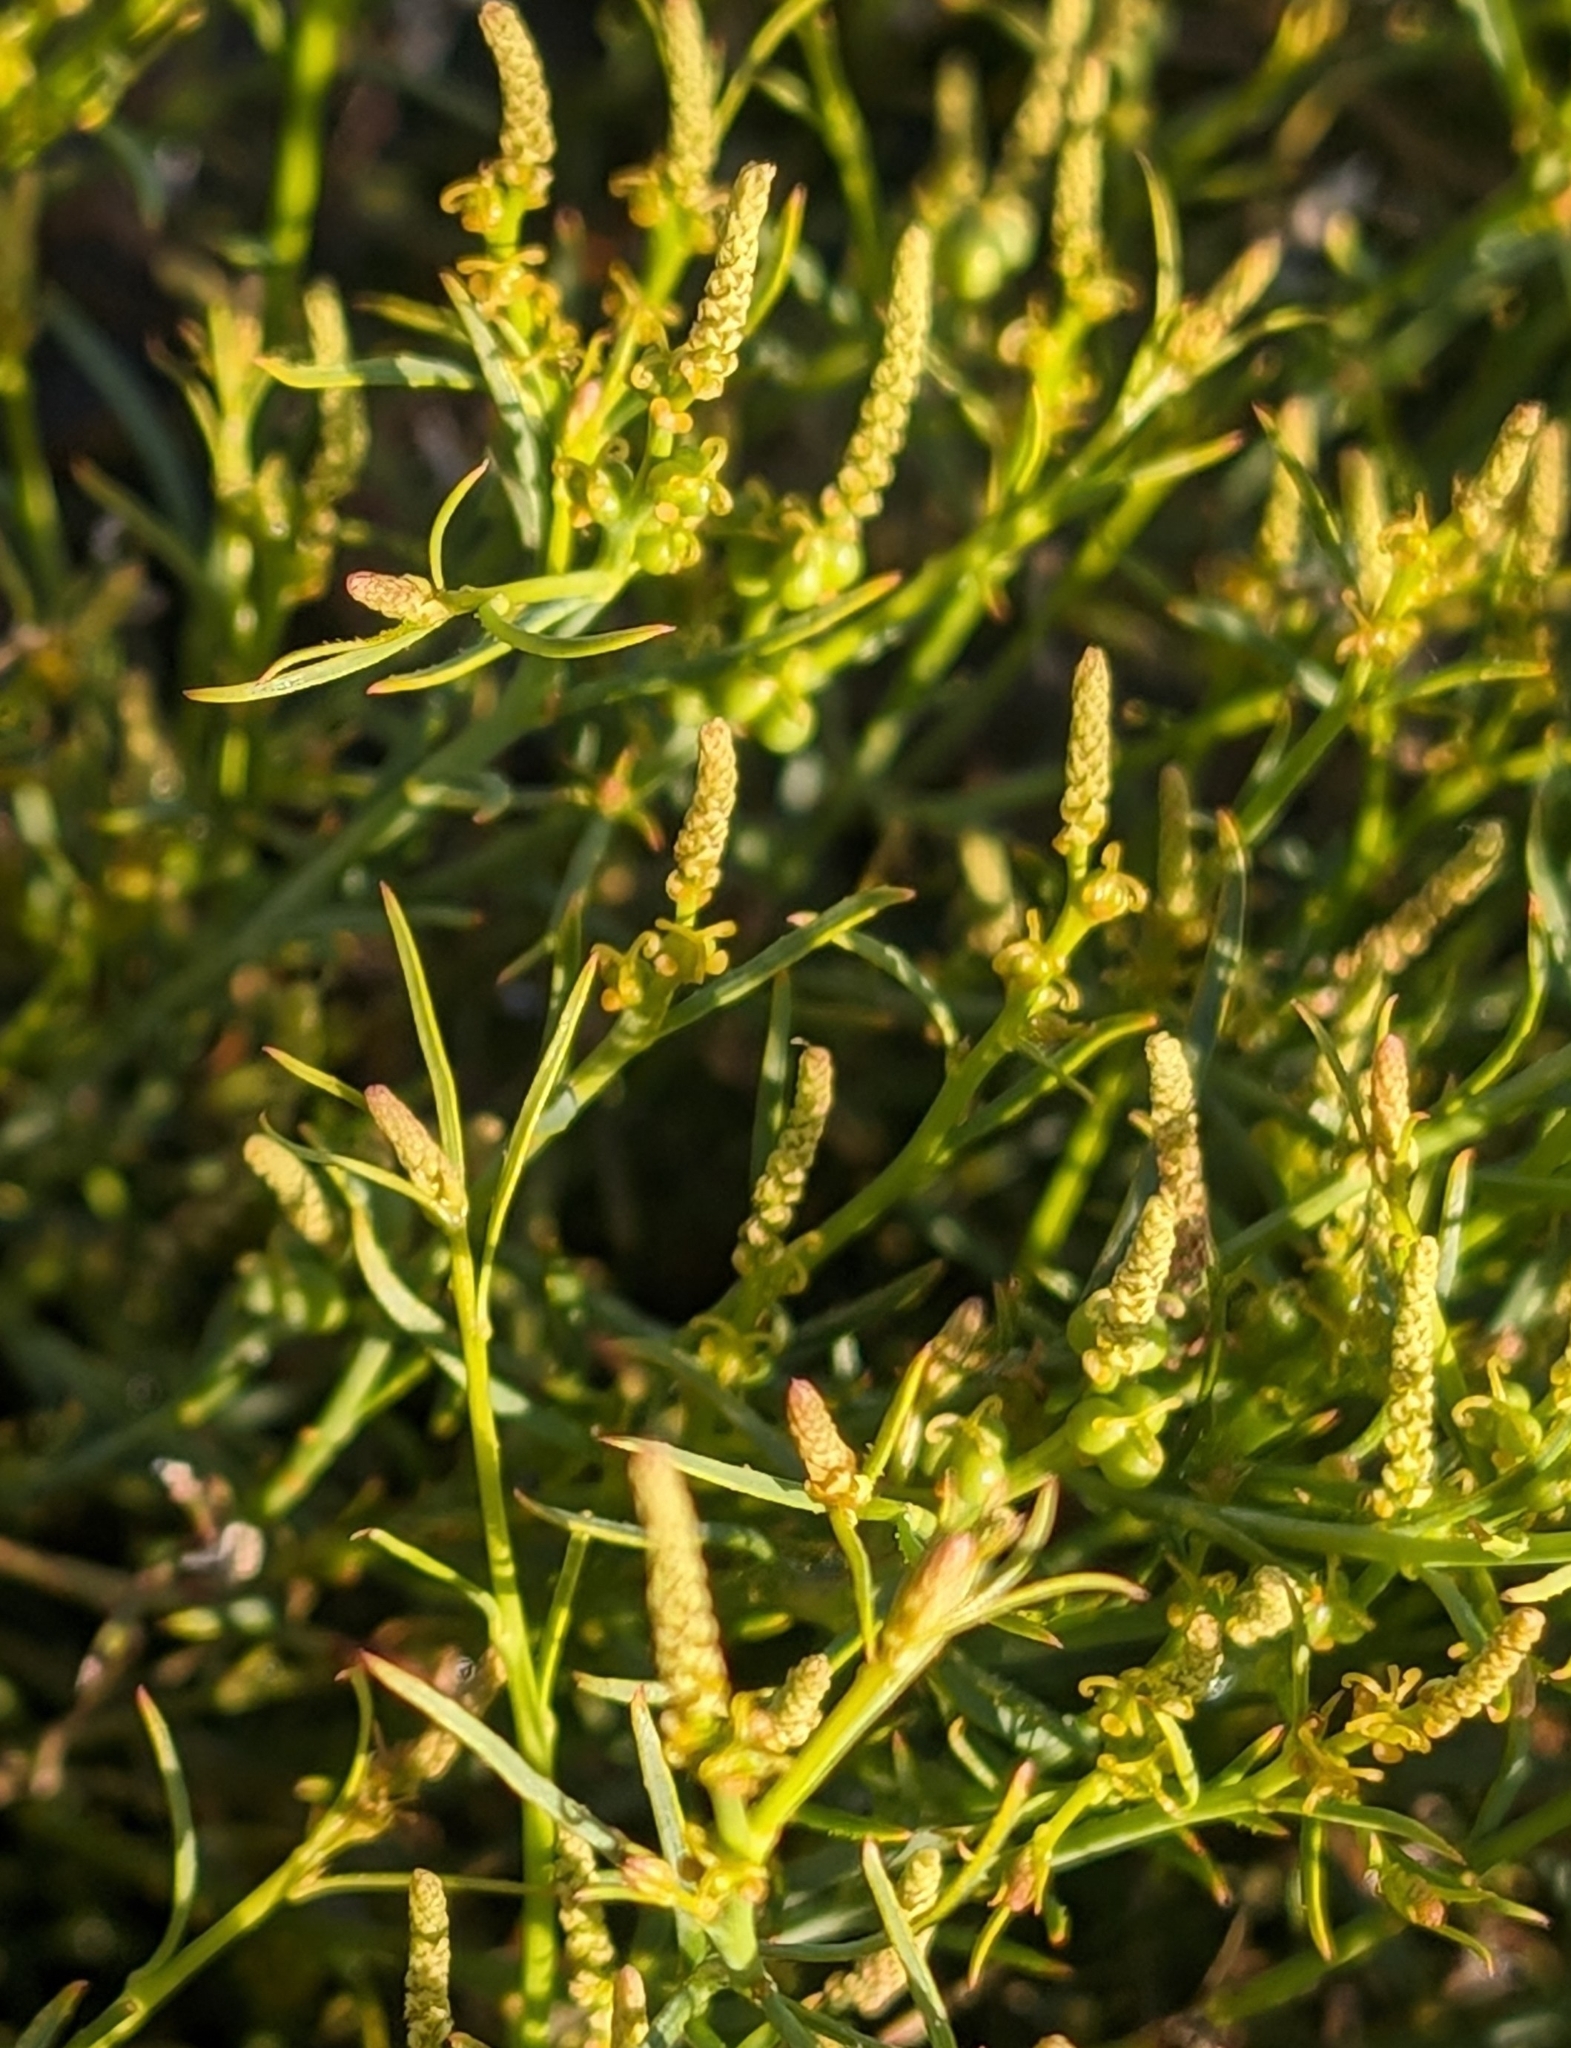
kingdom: Plantae
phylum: Tracheophyta
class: Magnoliopsida
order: Malpighiales
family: Euphorbiaceae
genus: Stillingia
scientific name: Stillingia linearifolia
